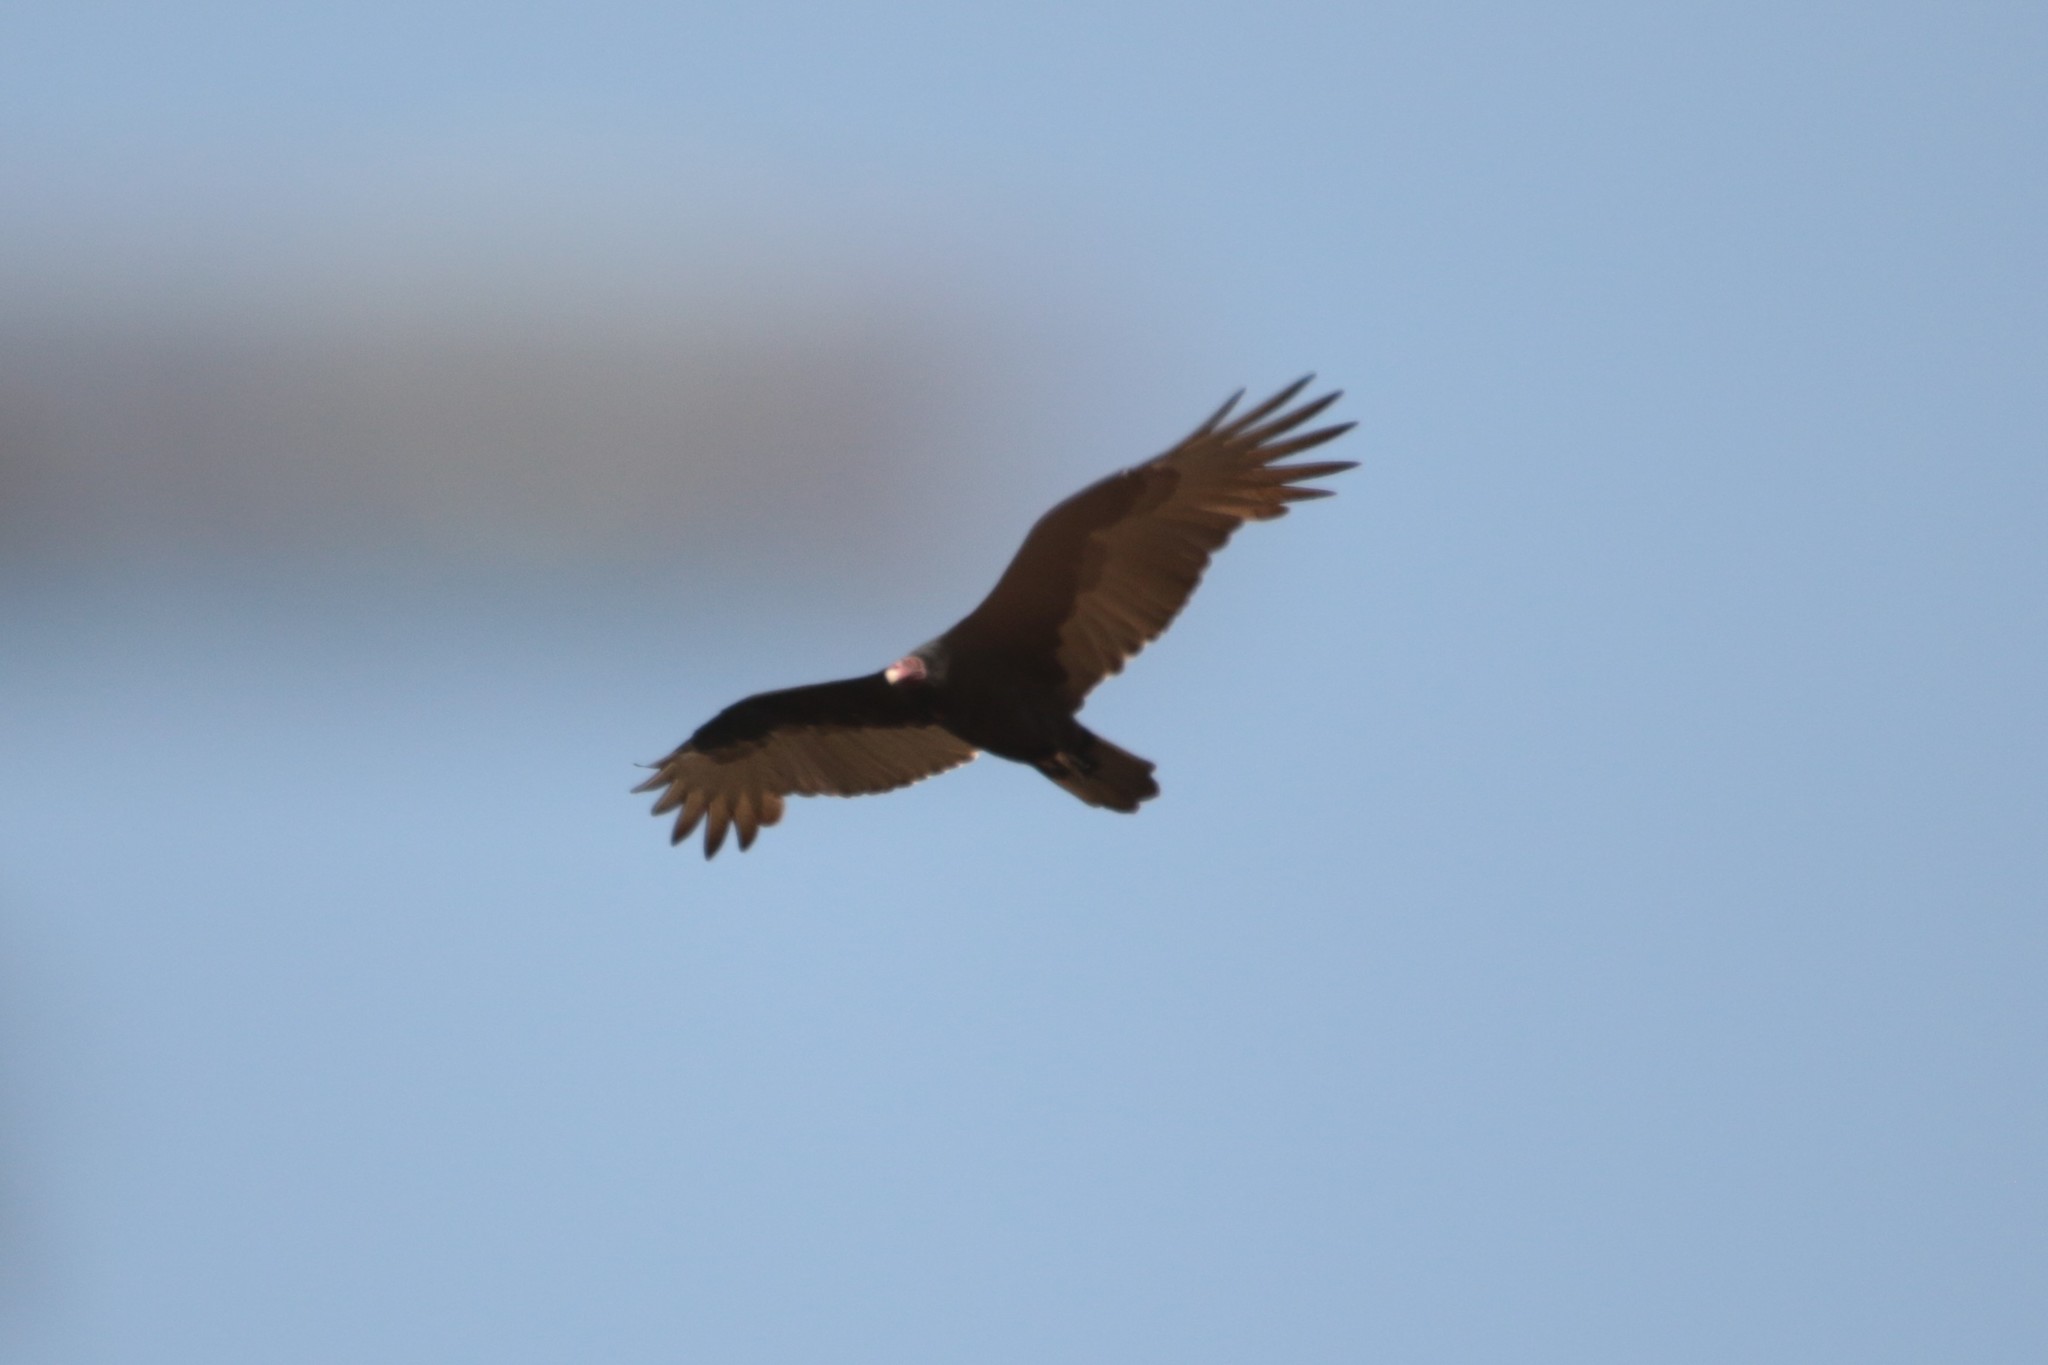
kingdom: Animalia
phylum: Chordata
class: Aves
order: Accipitriformes
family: Cathartidae
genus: Cathartes
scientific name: Cathartes aura
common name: Turkey vulture
